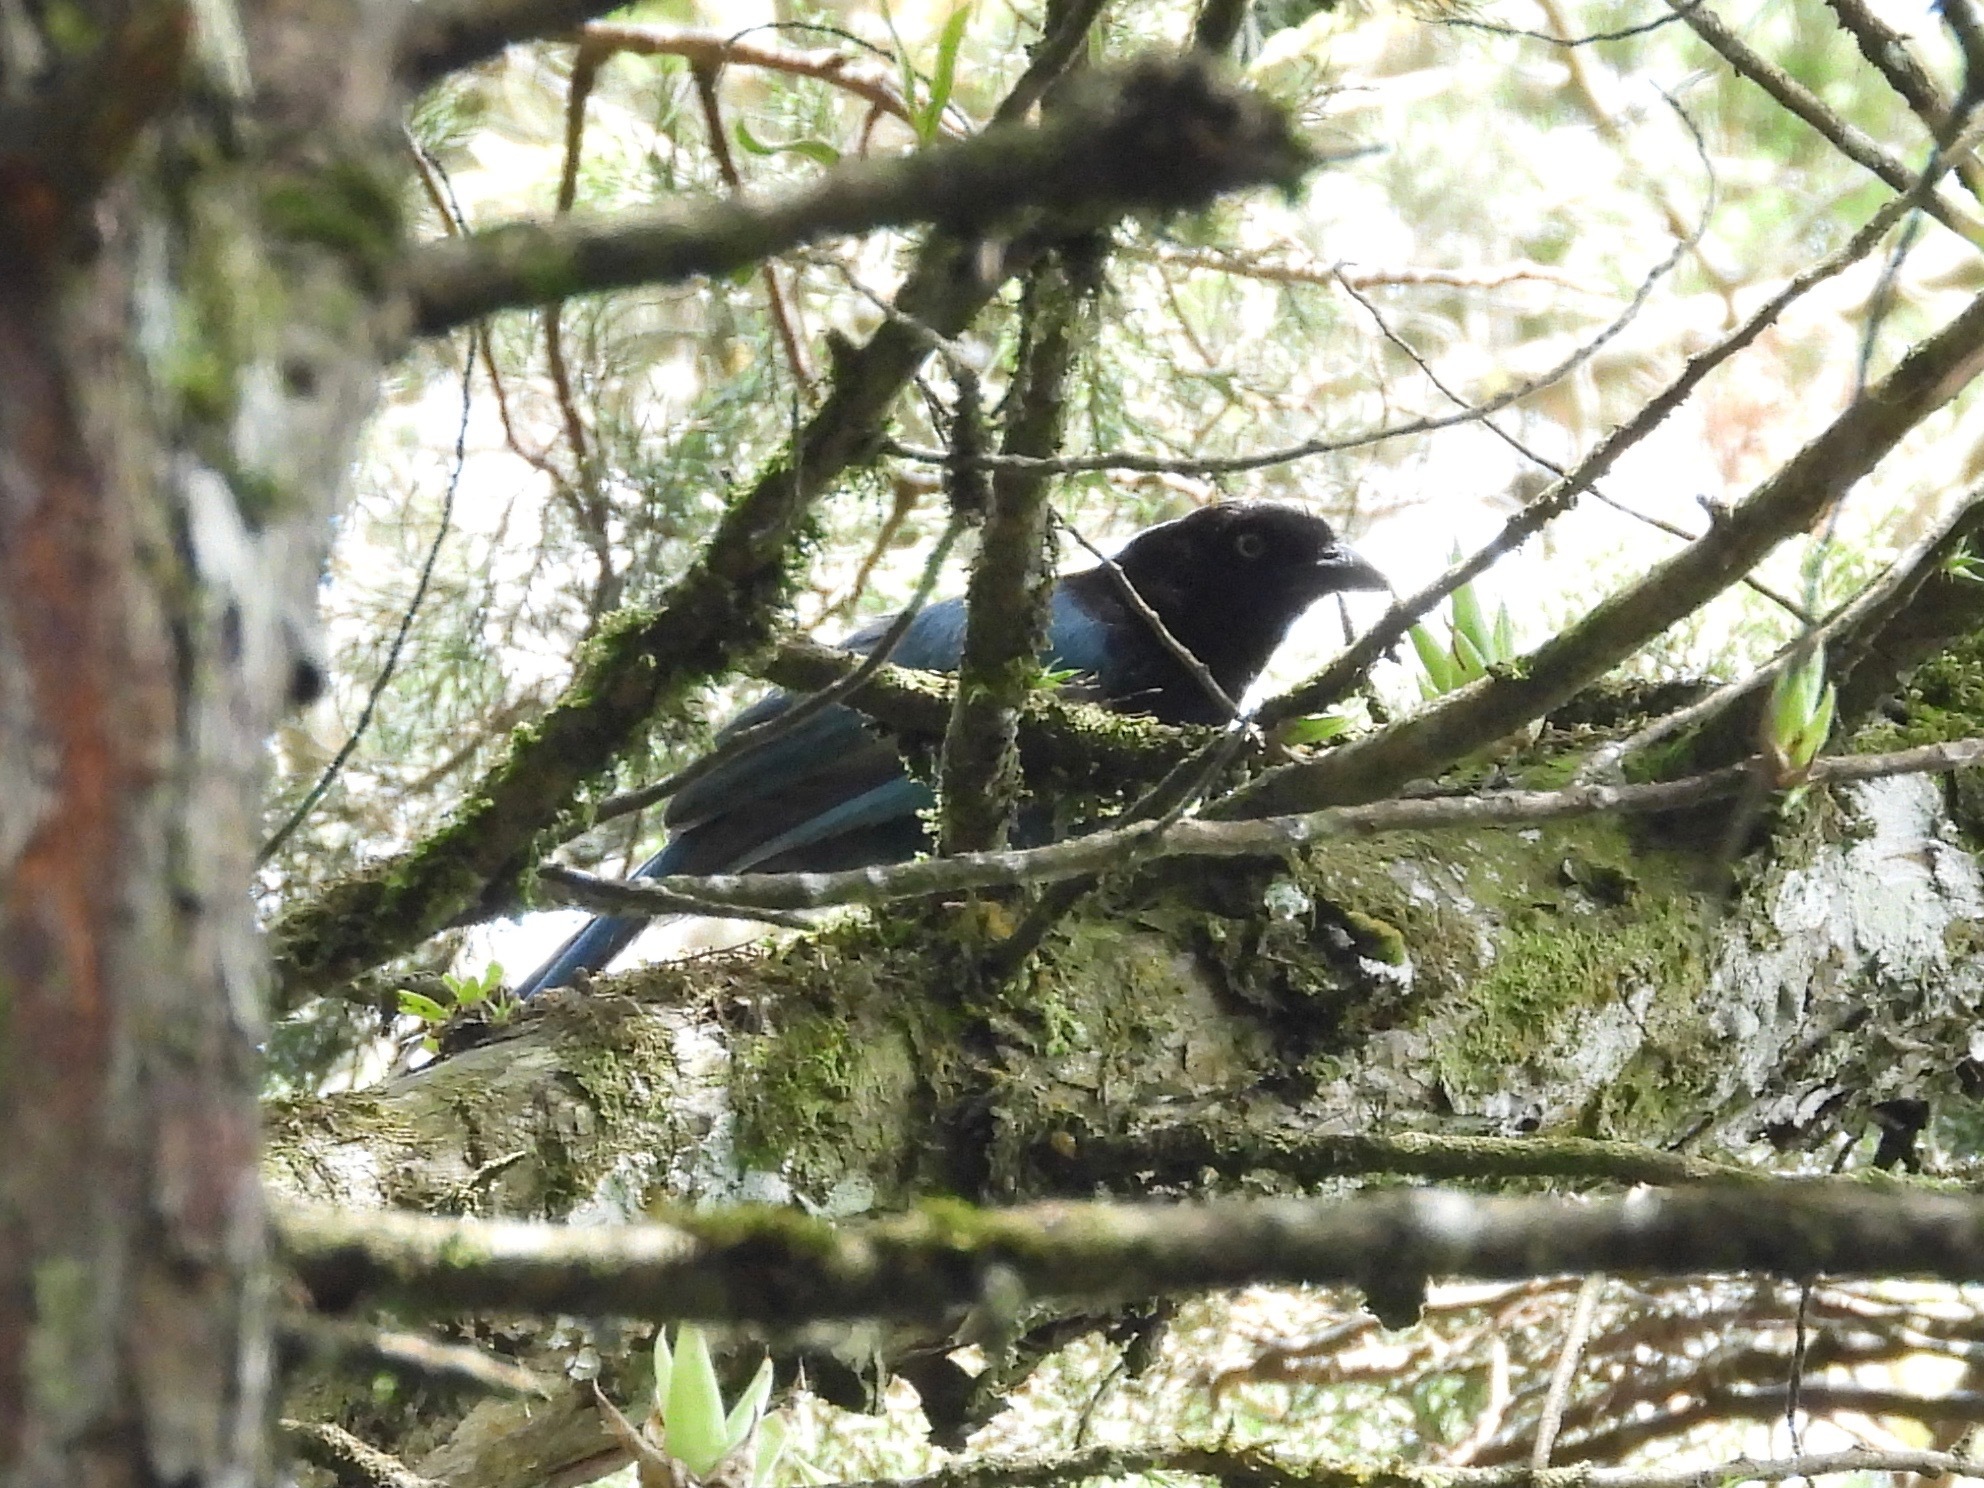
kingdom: Animalia
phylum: Chordata
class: Aves
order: Passeriformes
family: Corvidae
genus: Cyanocorax
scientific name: Cyanocorax melanocyaneus
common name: Bushy-crested jay
